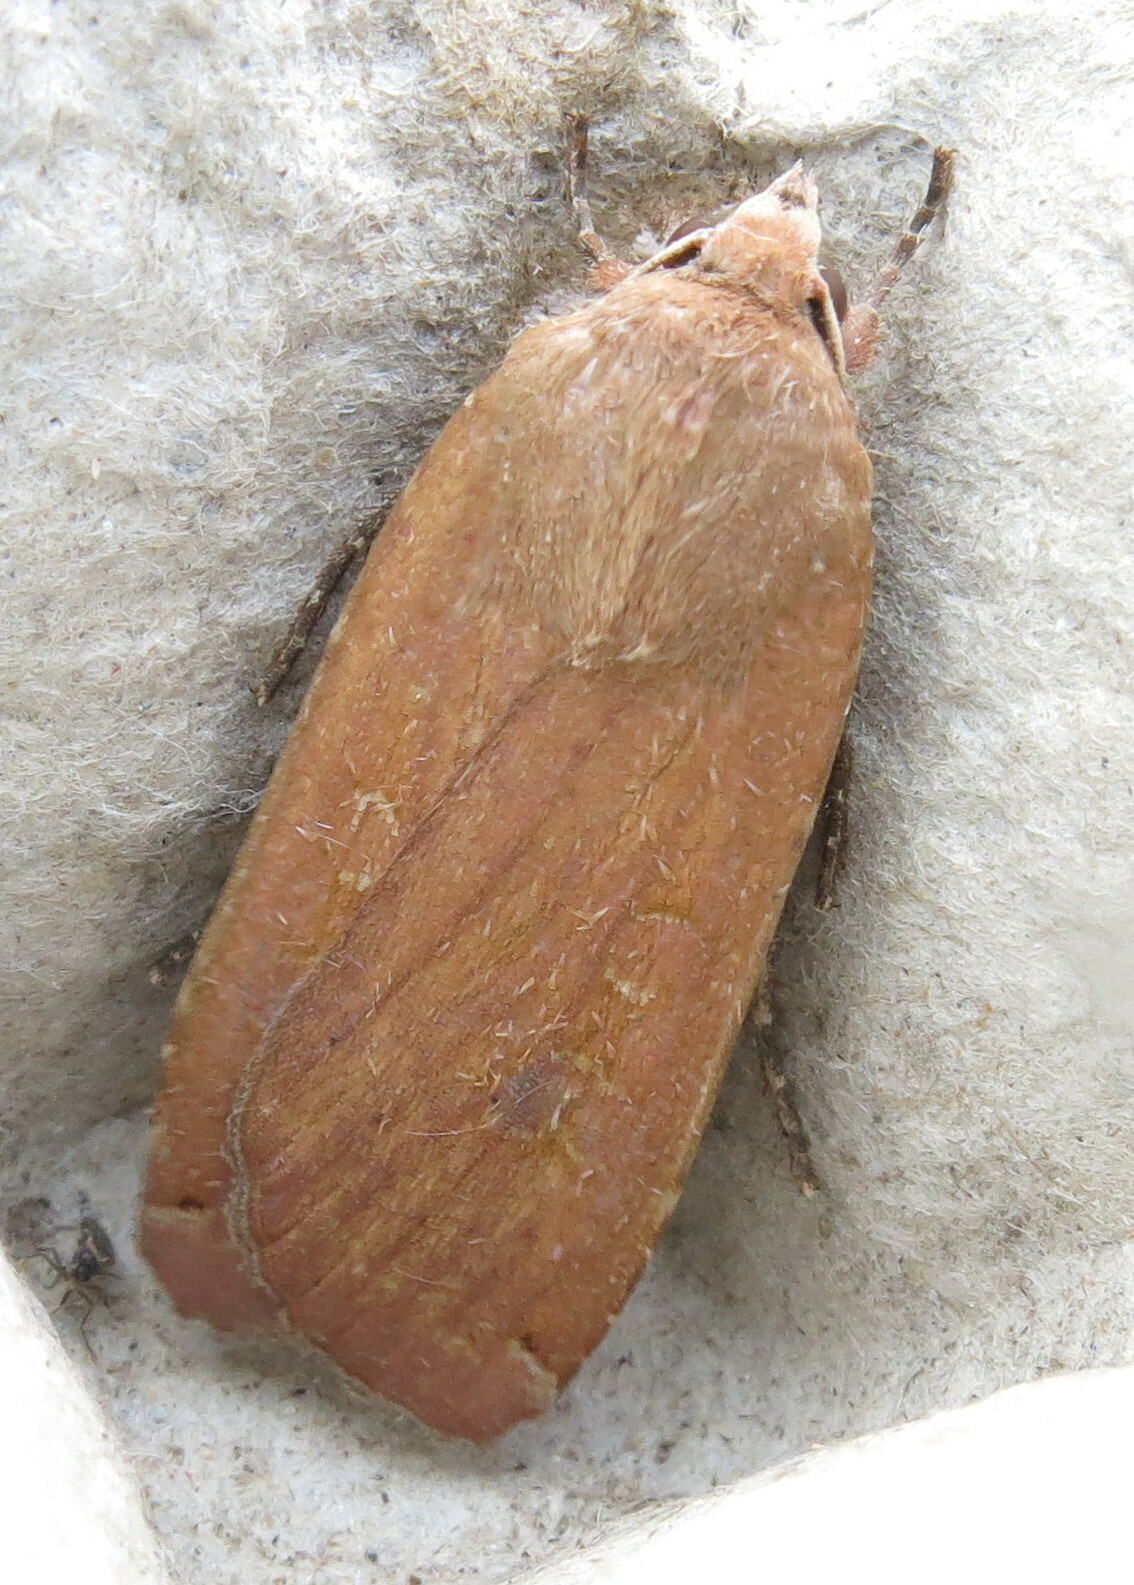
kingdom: Animalia
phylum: Arthropoda
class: Insecta
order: Lepidoptera
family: Noctuidae
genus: Noctua
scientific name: Noctua pronuba
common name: Large yellow underwing
